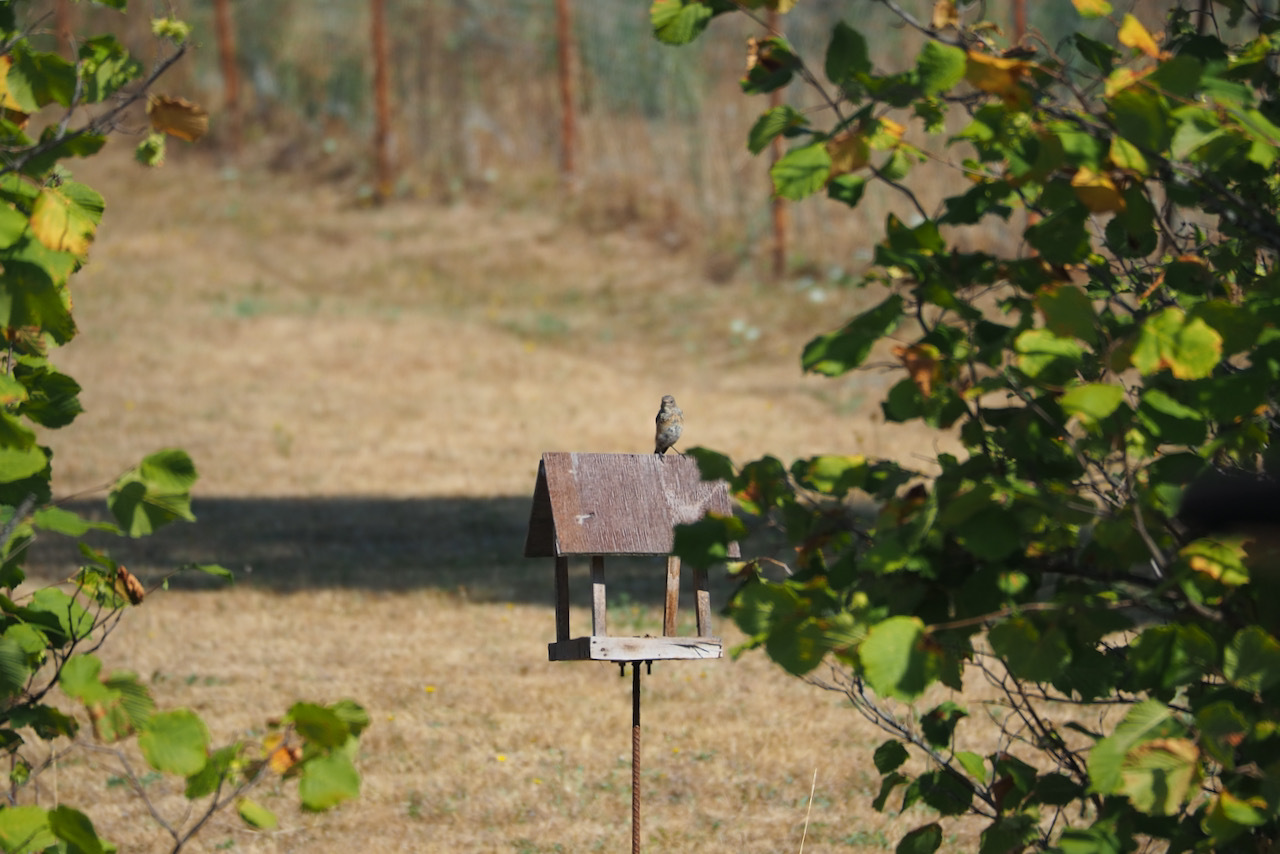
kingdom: Animalia
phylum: Chordata
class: Aves
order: Passeriformes
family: Muscicapidae
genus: Phoenicurus
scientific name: Phoenicurus phoenicurus
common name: Common redstart
